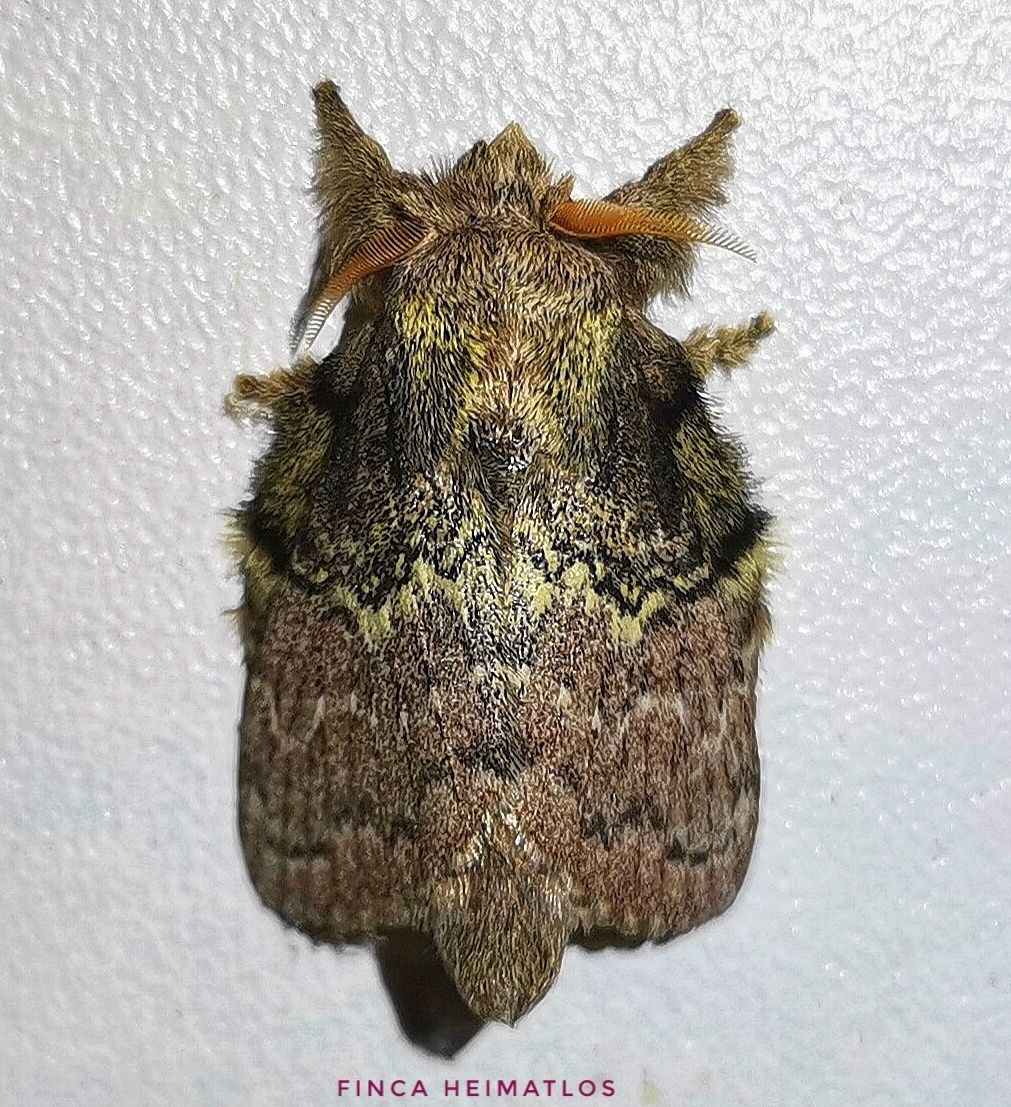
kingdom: Animalia
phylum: Arthropoda
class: Insecta
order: Lepidoptera
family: Lasiocampidae
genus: Euglyphis
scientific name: Euglyphis tanta
